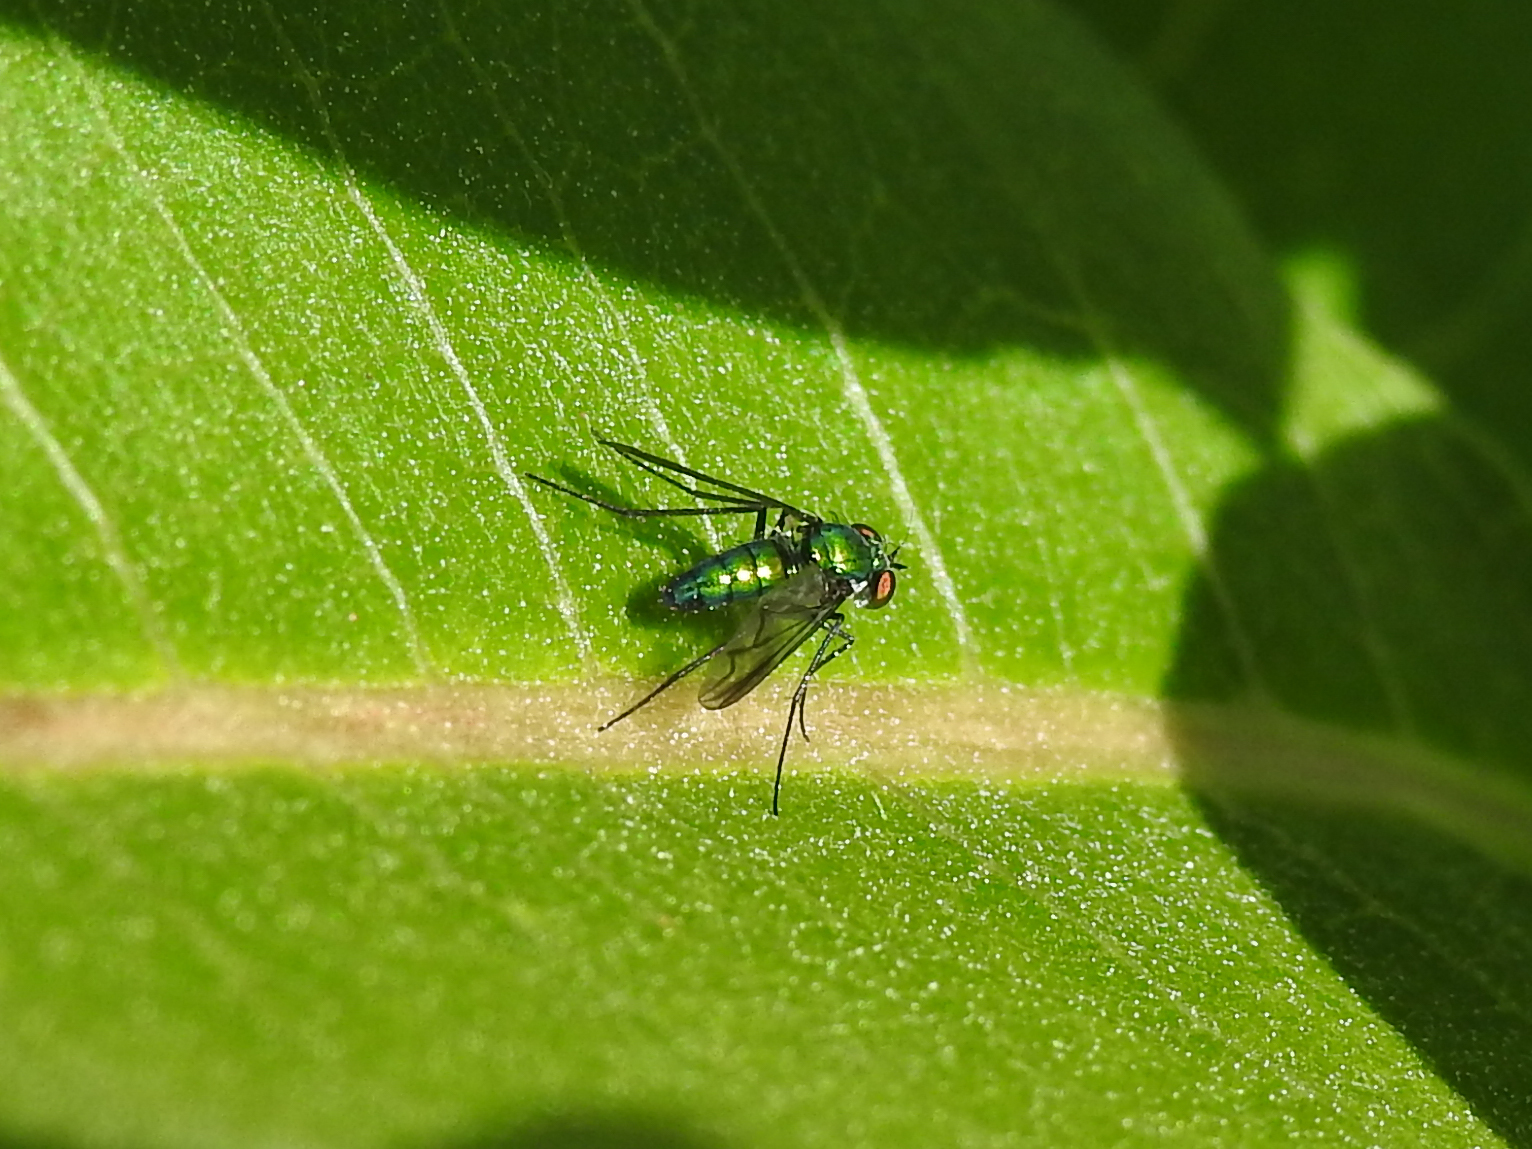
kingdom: Animalia
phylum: Arthropoda
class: Insecta
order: Diptera
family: Dolichopodidae
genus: Condylostylus
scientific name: Condylostylus patibulatus
